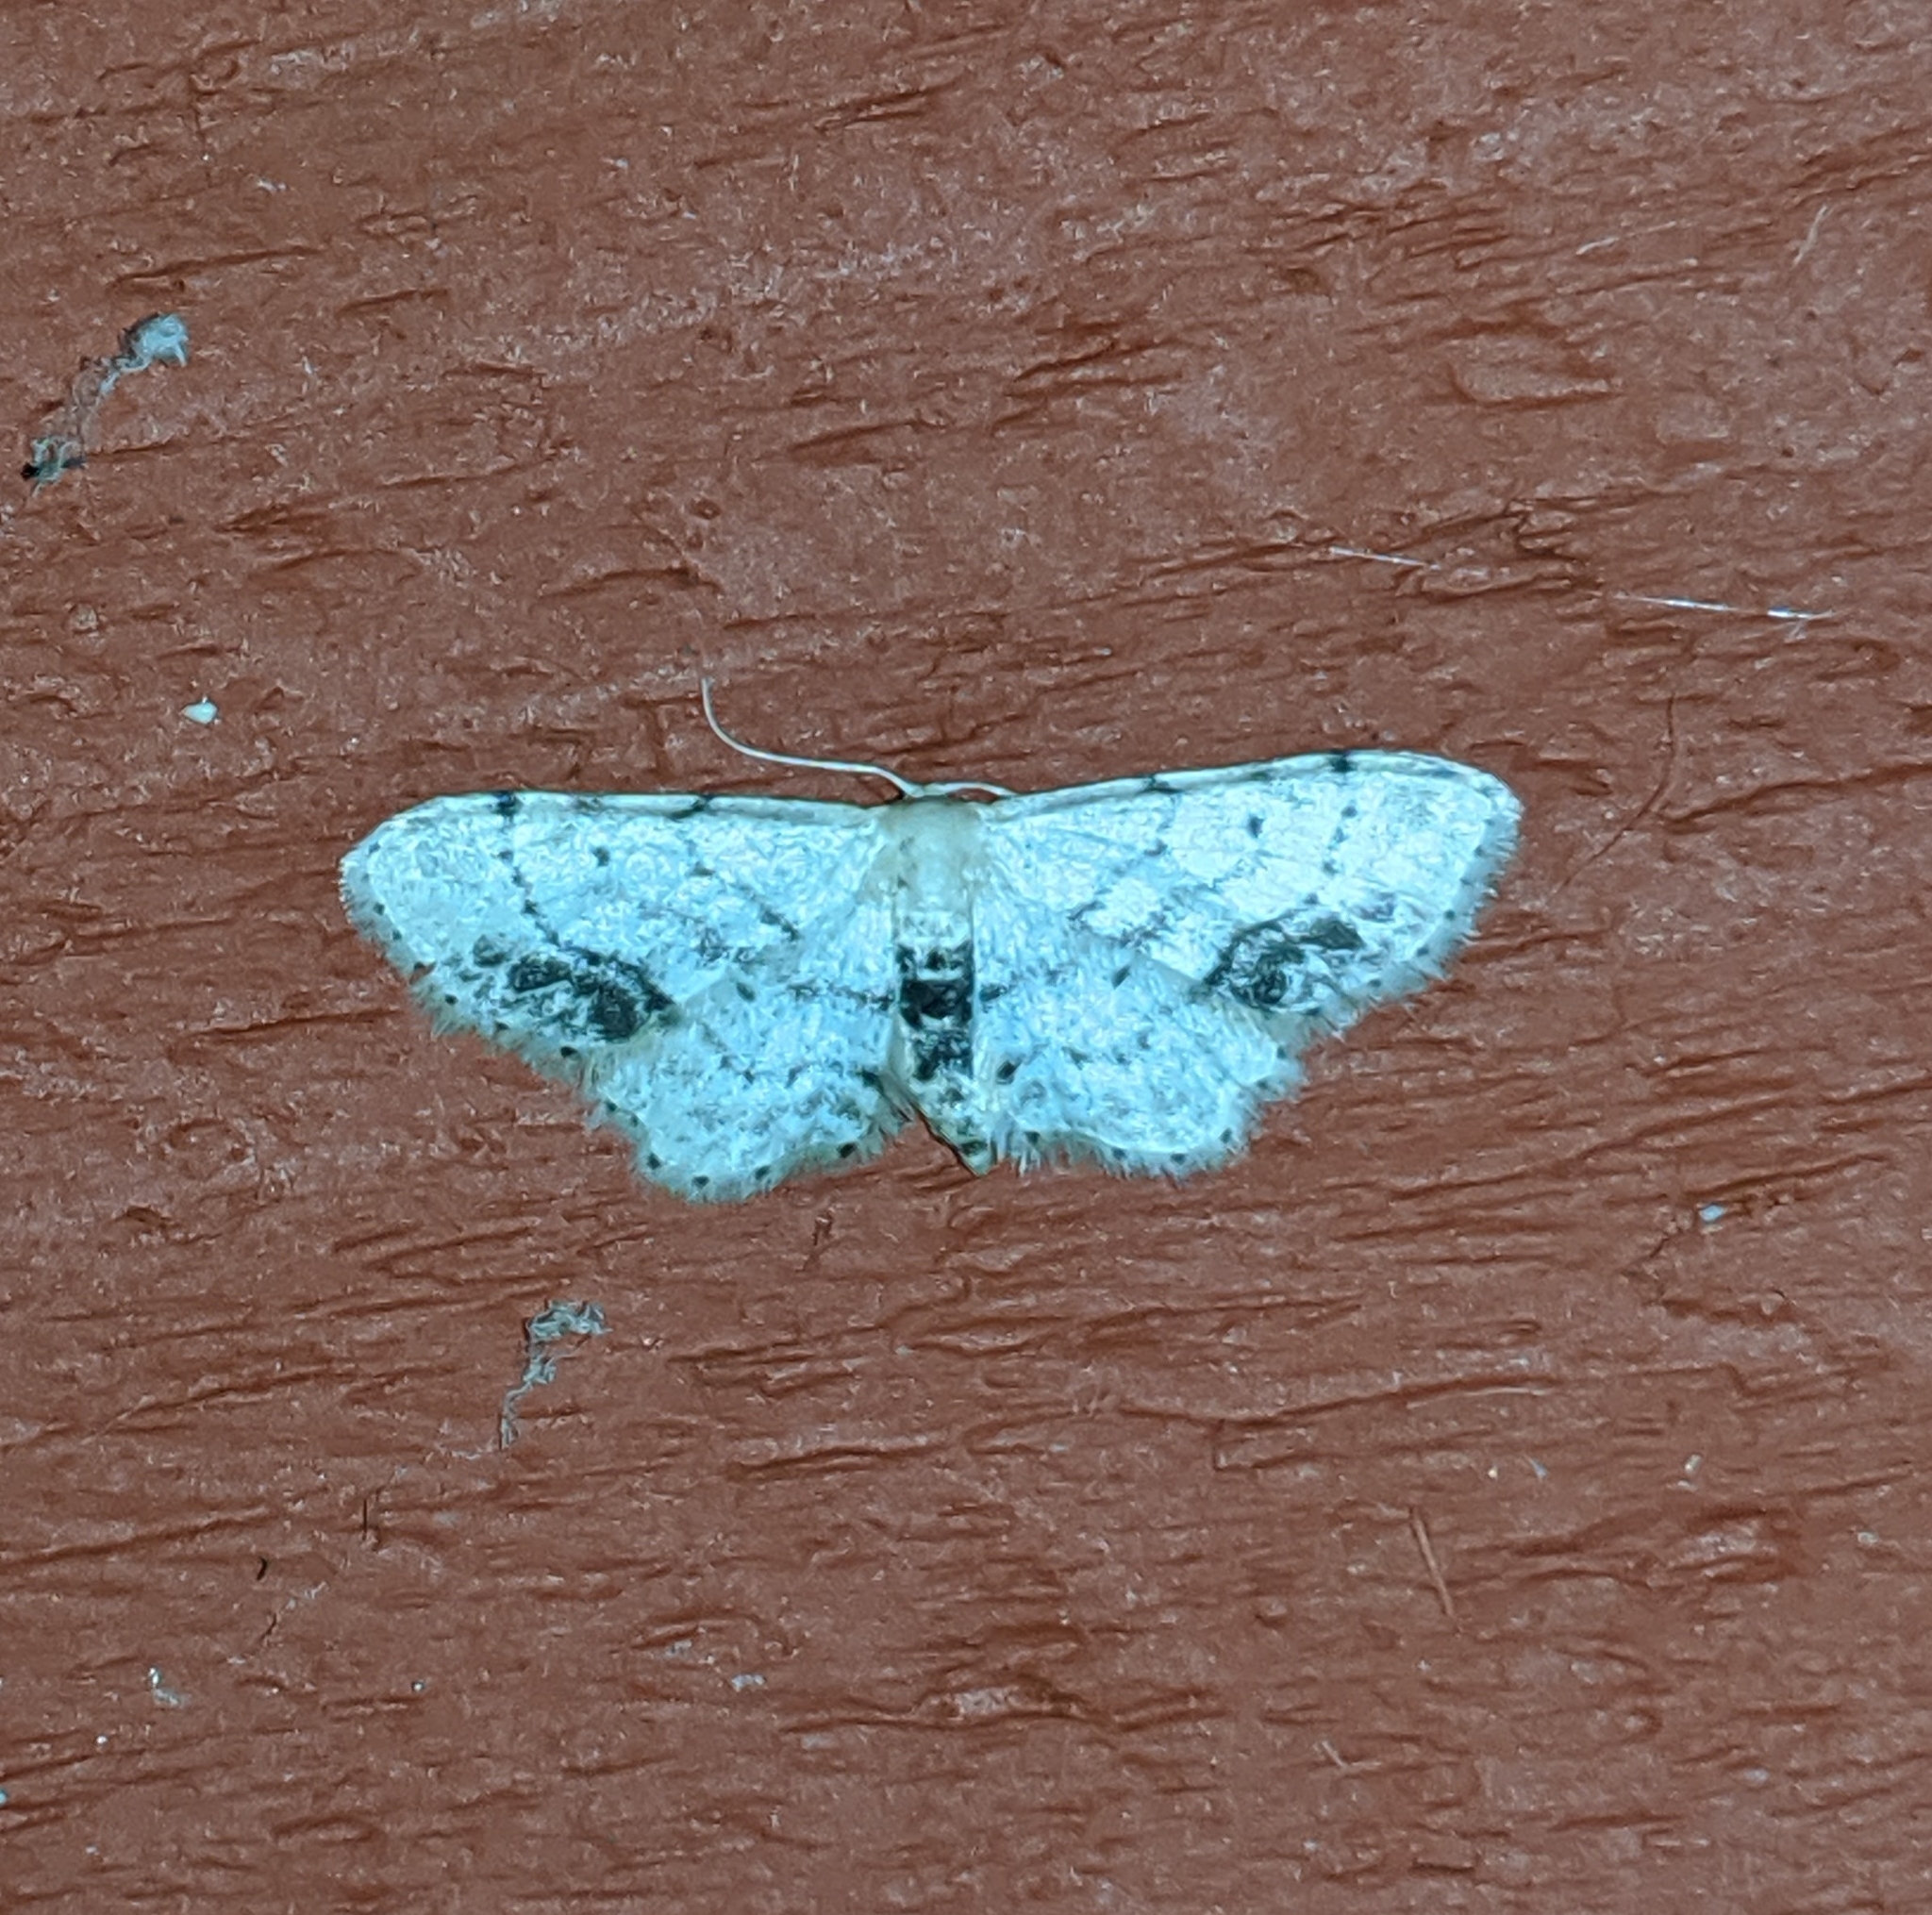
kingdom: Animalia
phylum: Arthropoda
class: Insecta
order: Lepidoptera
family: Geometridae
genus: Idaea
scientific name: Idaea dimidiata
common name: Single-dotted wave
